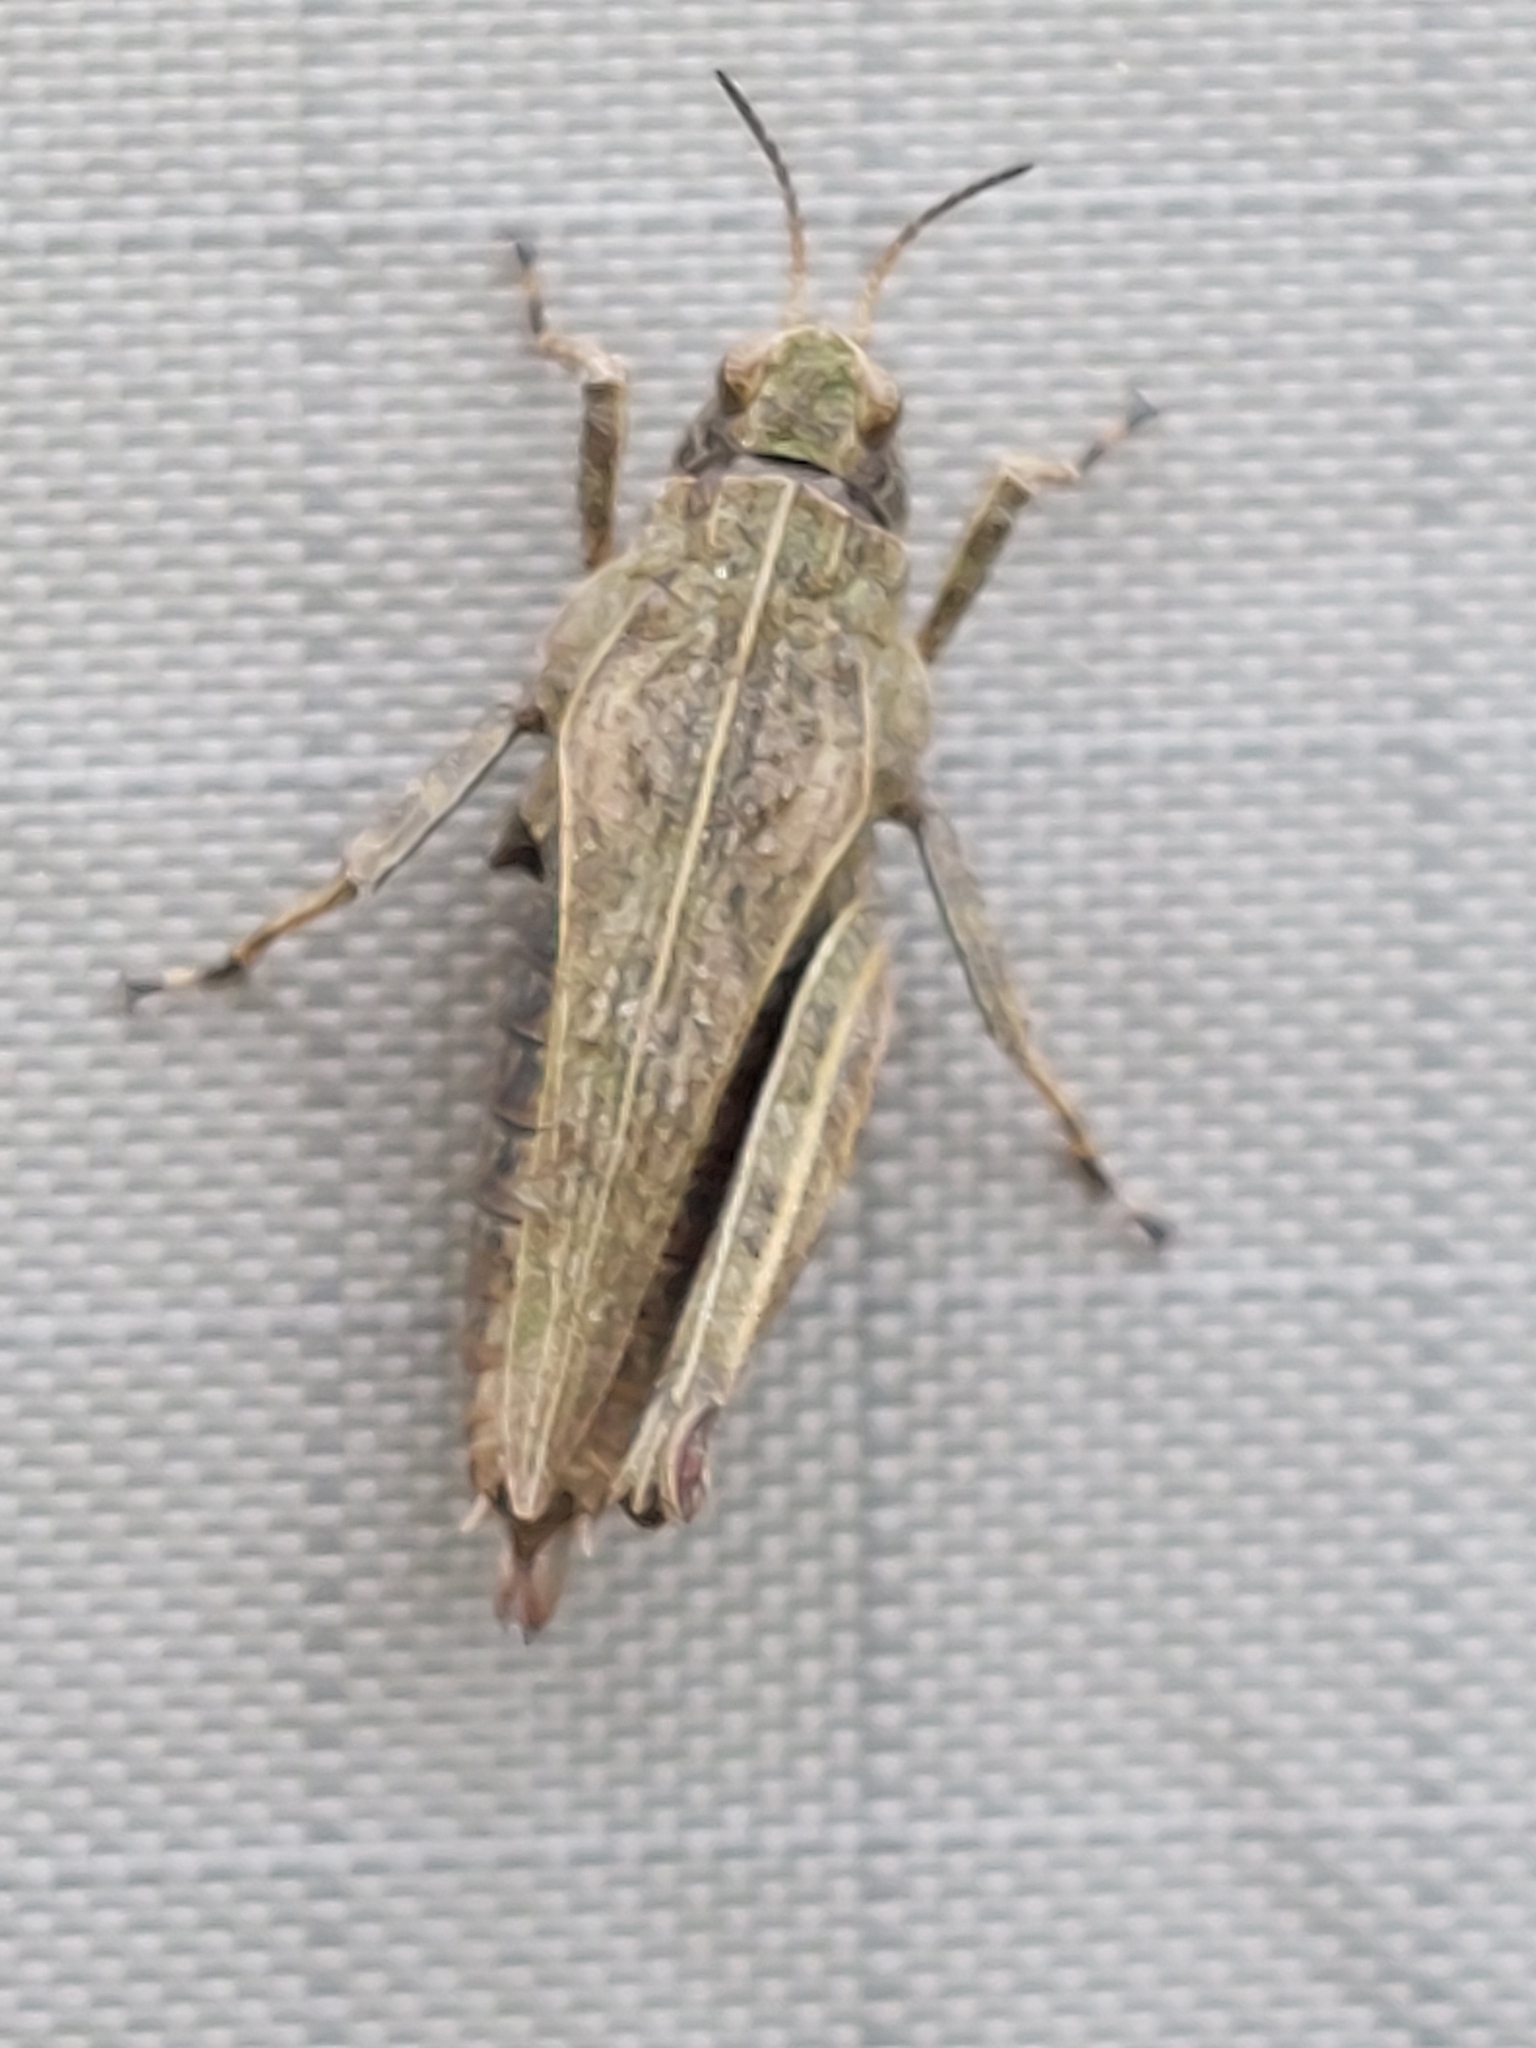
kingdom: Animalia
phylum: Arthropoda
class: Insecta
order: Orthoptera
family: Tetrigidae
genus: Tetrix
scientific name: Tetrix undulata
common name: Common groundhopper
